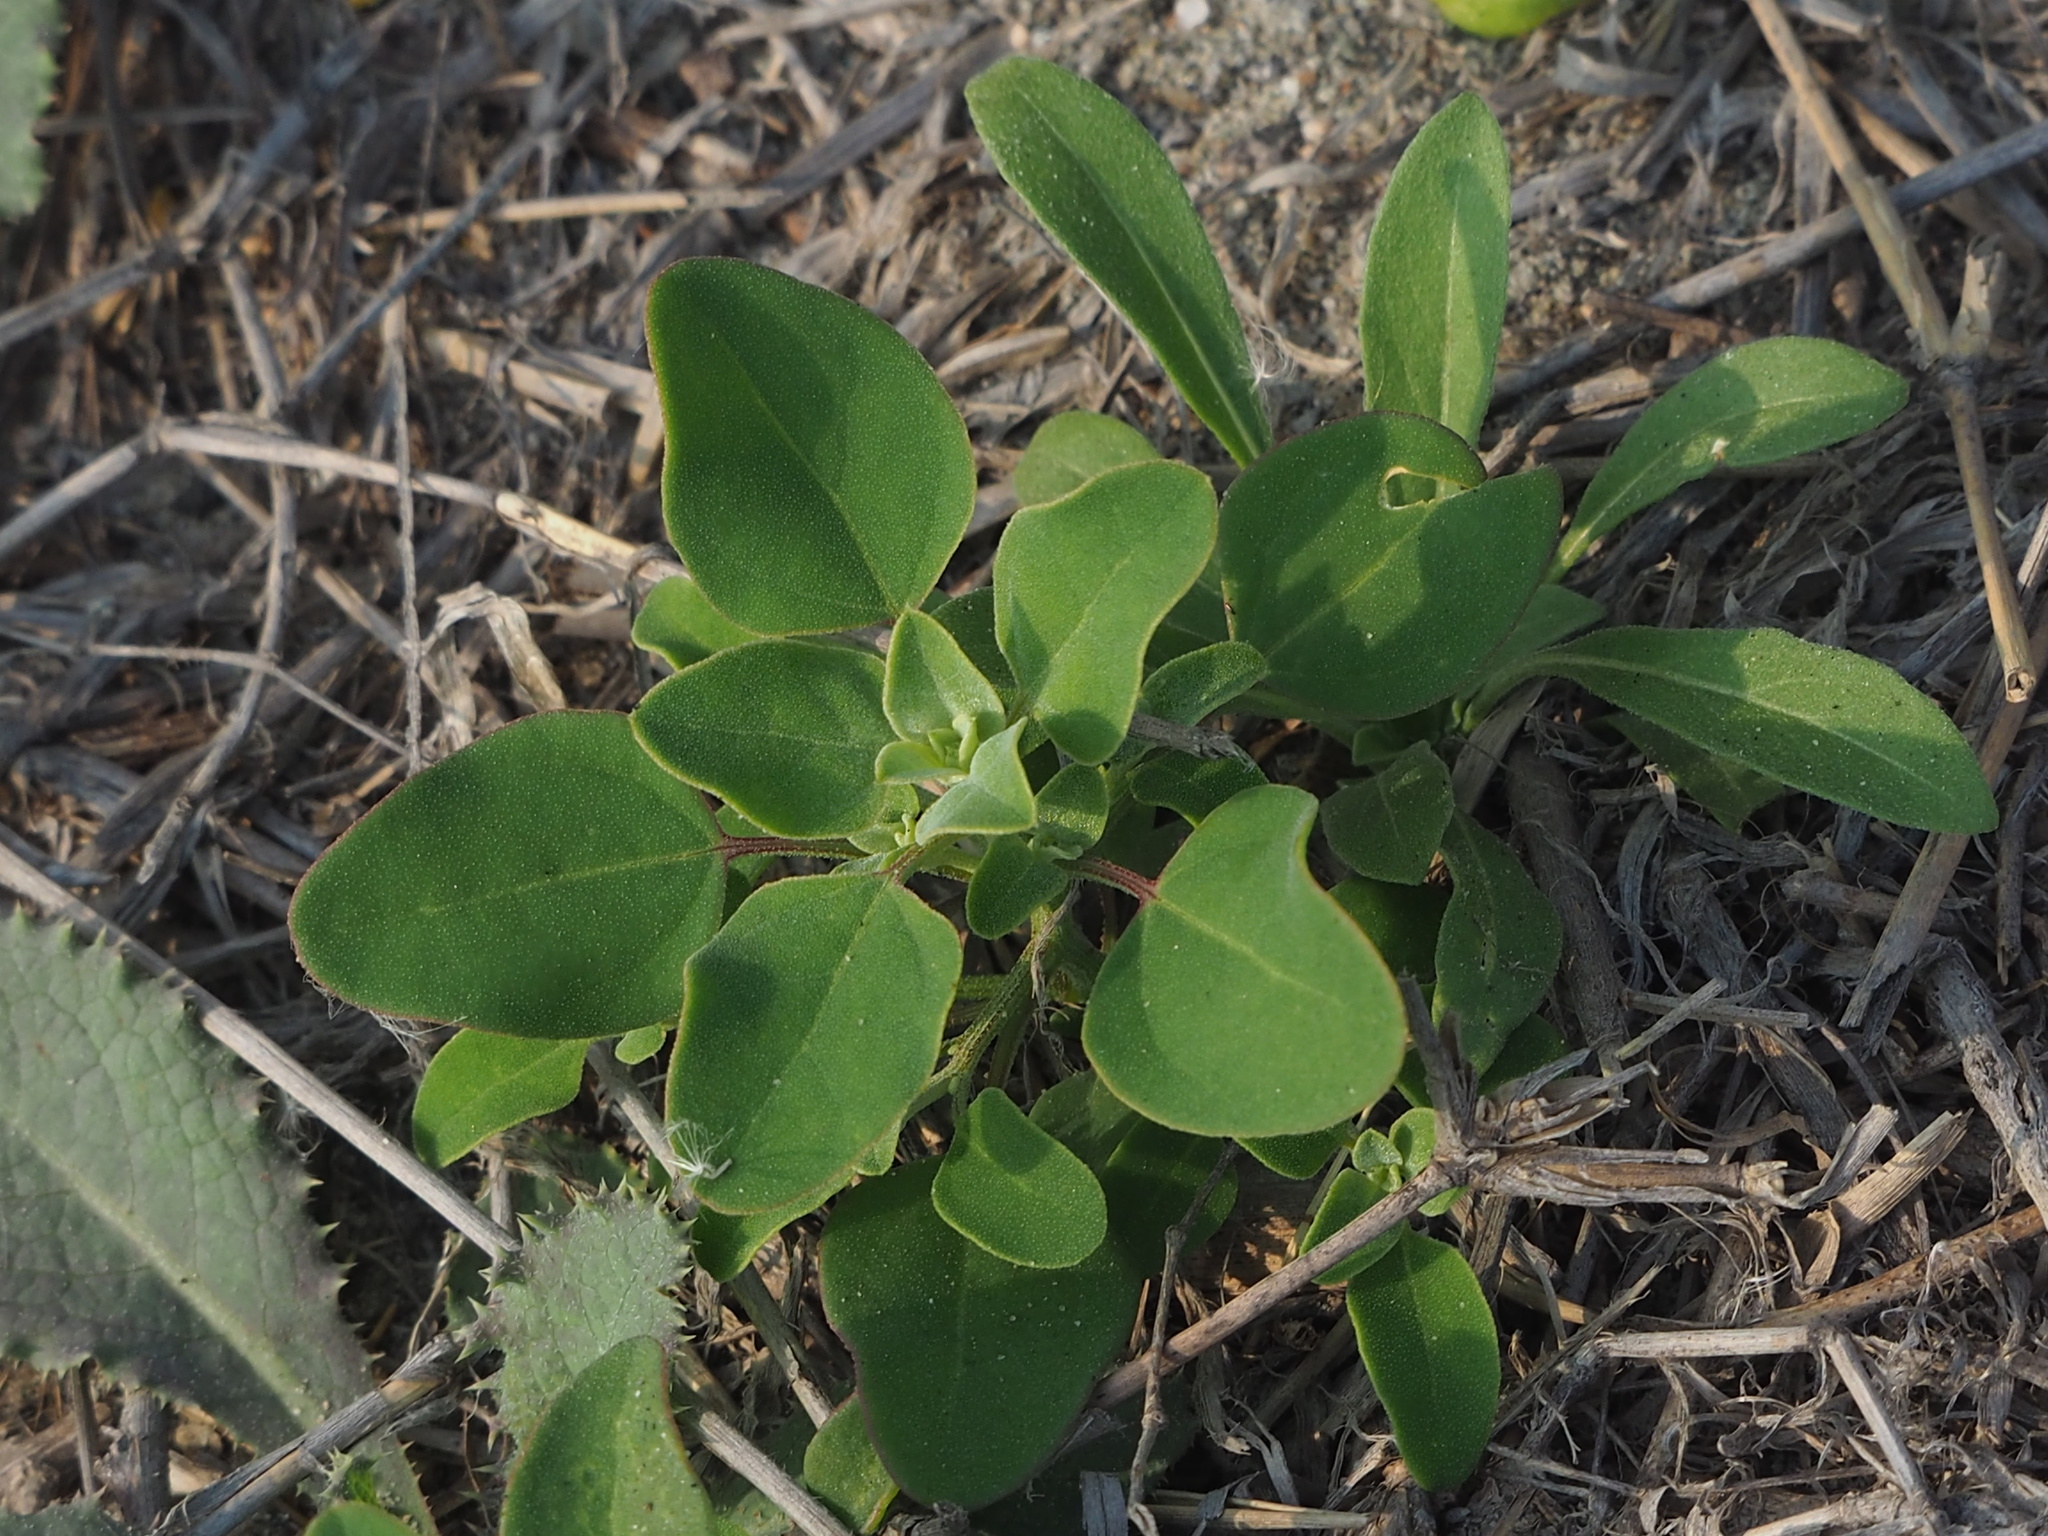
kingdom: Plantae
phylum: Tracheophyta
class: Magnoliopsida
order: Caryophyllales
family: Amaranthaceae
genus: Chenopodium
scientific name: Chenopodium acuminatum
